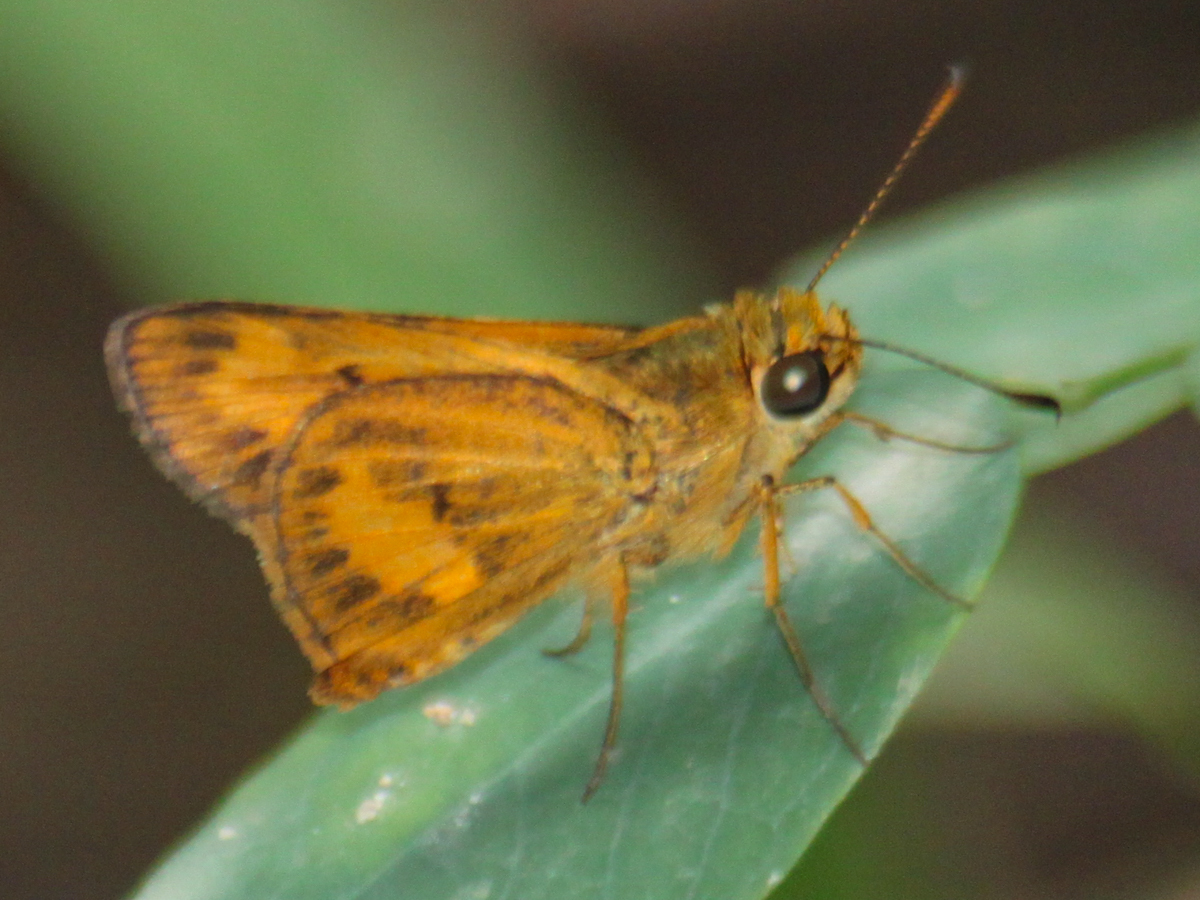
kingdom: Animalia
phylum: Arthropoda
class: Insecta
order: Lepidoptera
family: Hesperiidae
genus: Oriens
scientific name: Oriens gola
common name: Common dartlet
